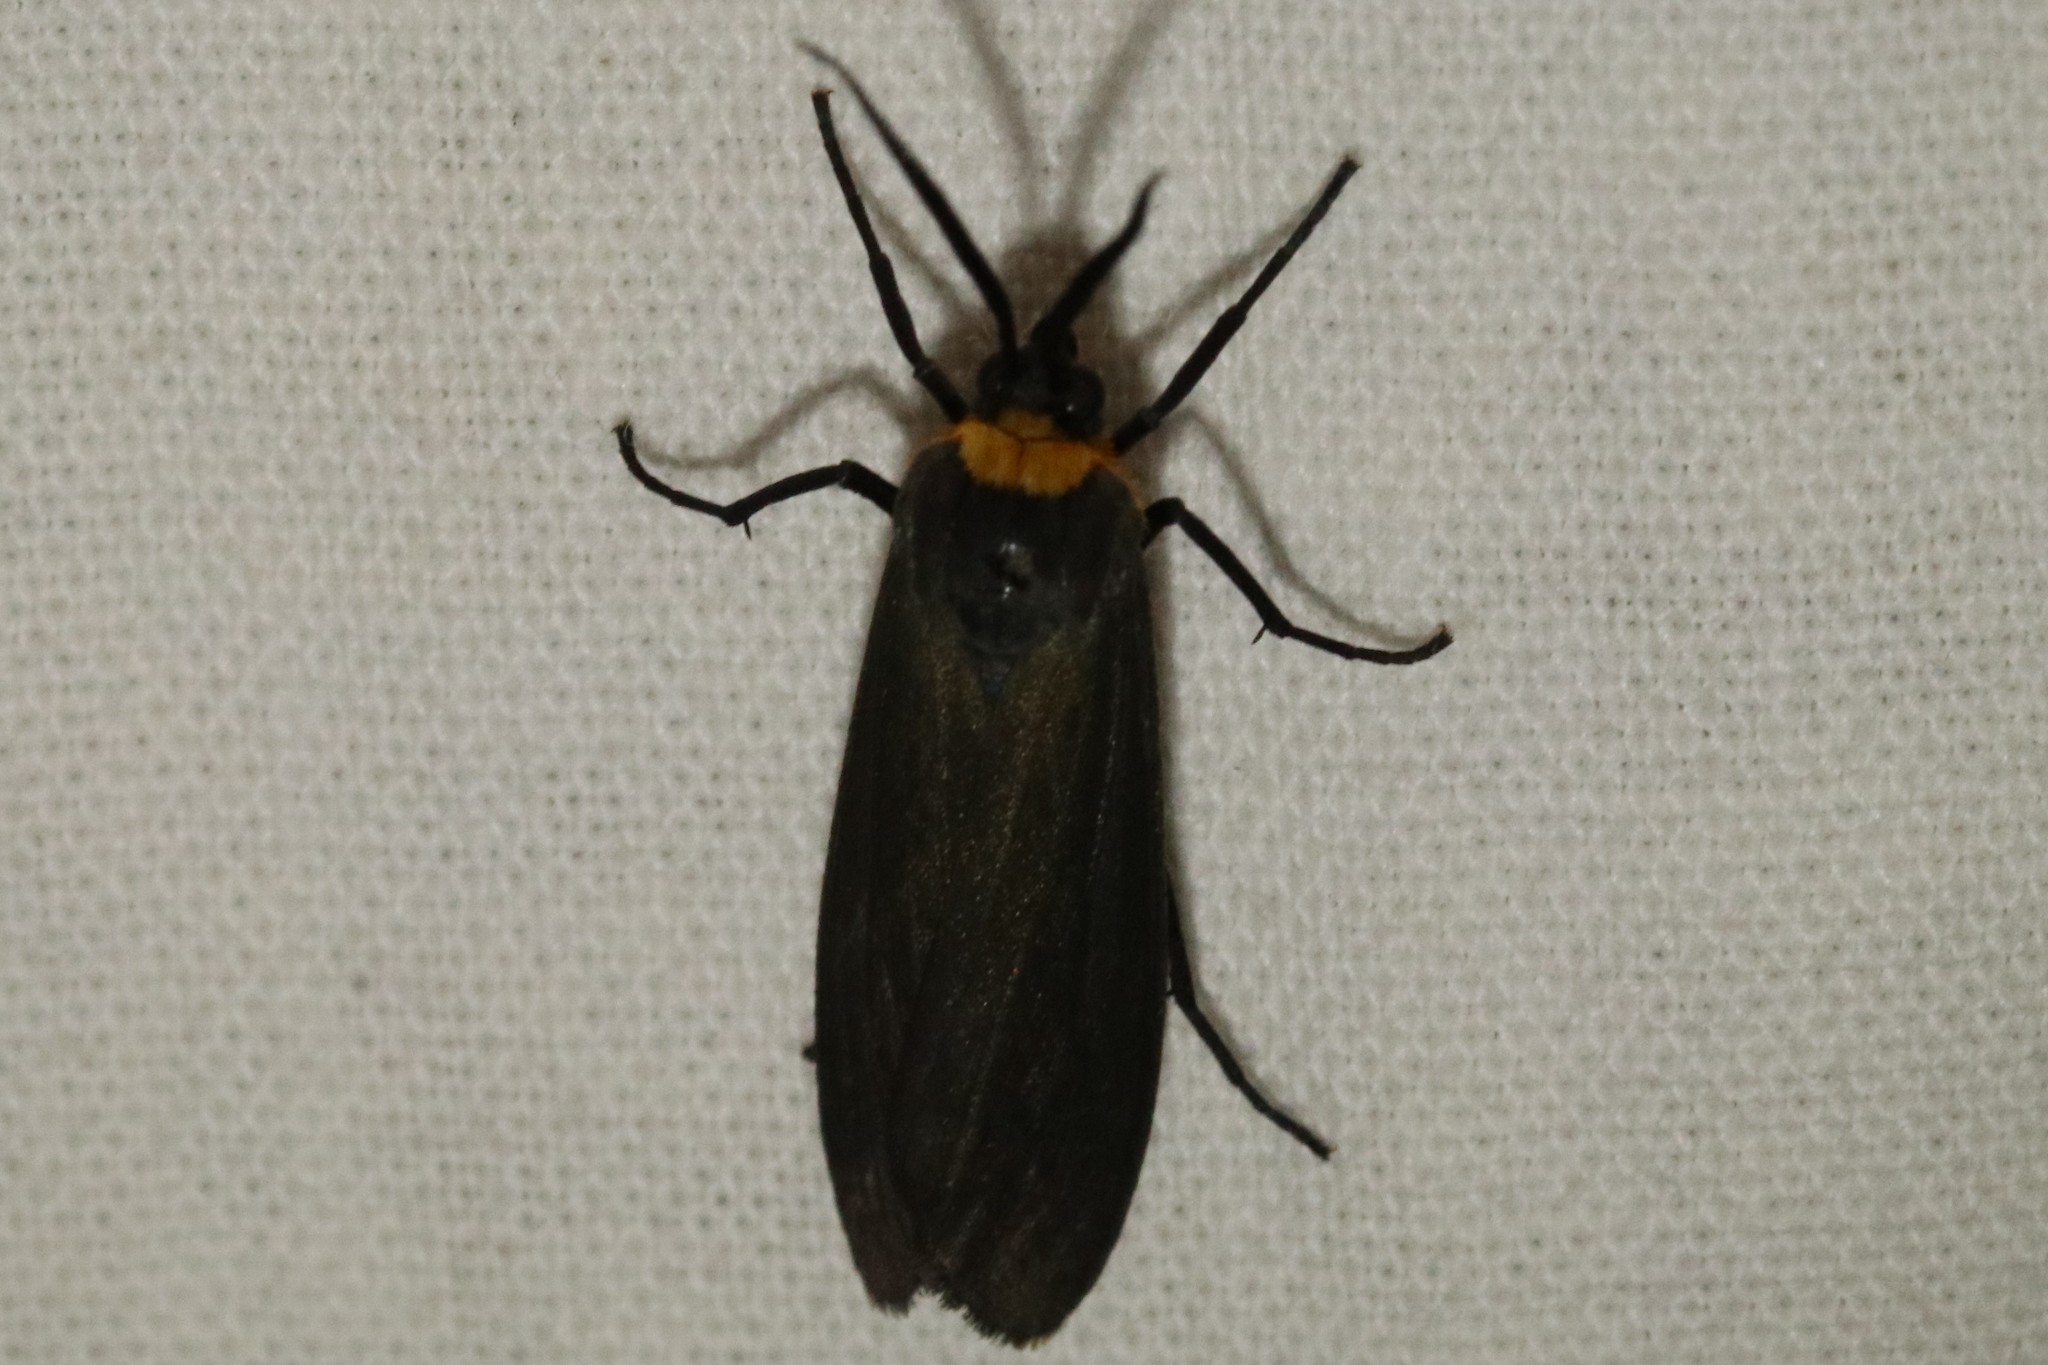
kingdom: Animalia
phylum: Arthropoda
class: Insecta
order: Lepidoptera
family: Erebidae
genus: Cisseps
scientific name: Cisseps fulvicollis
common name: Yellow-collared scape moth
